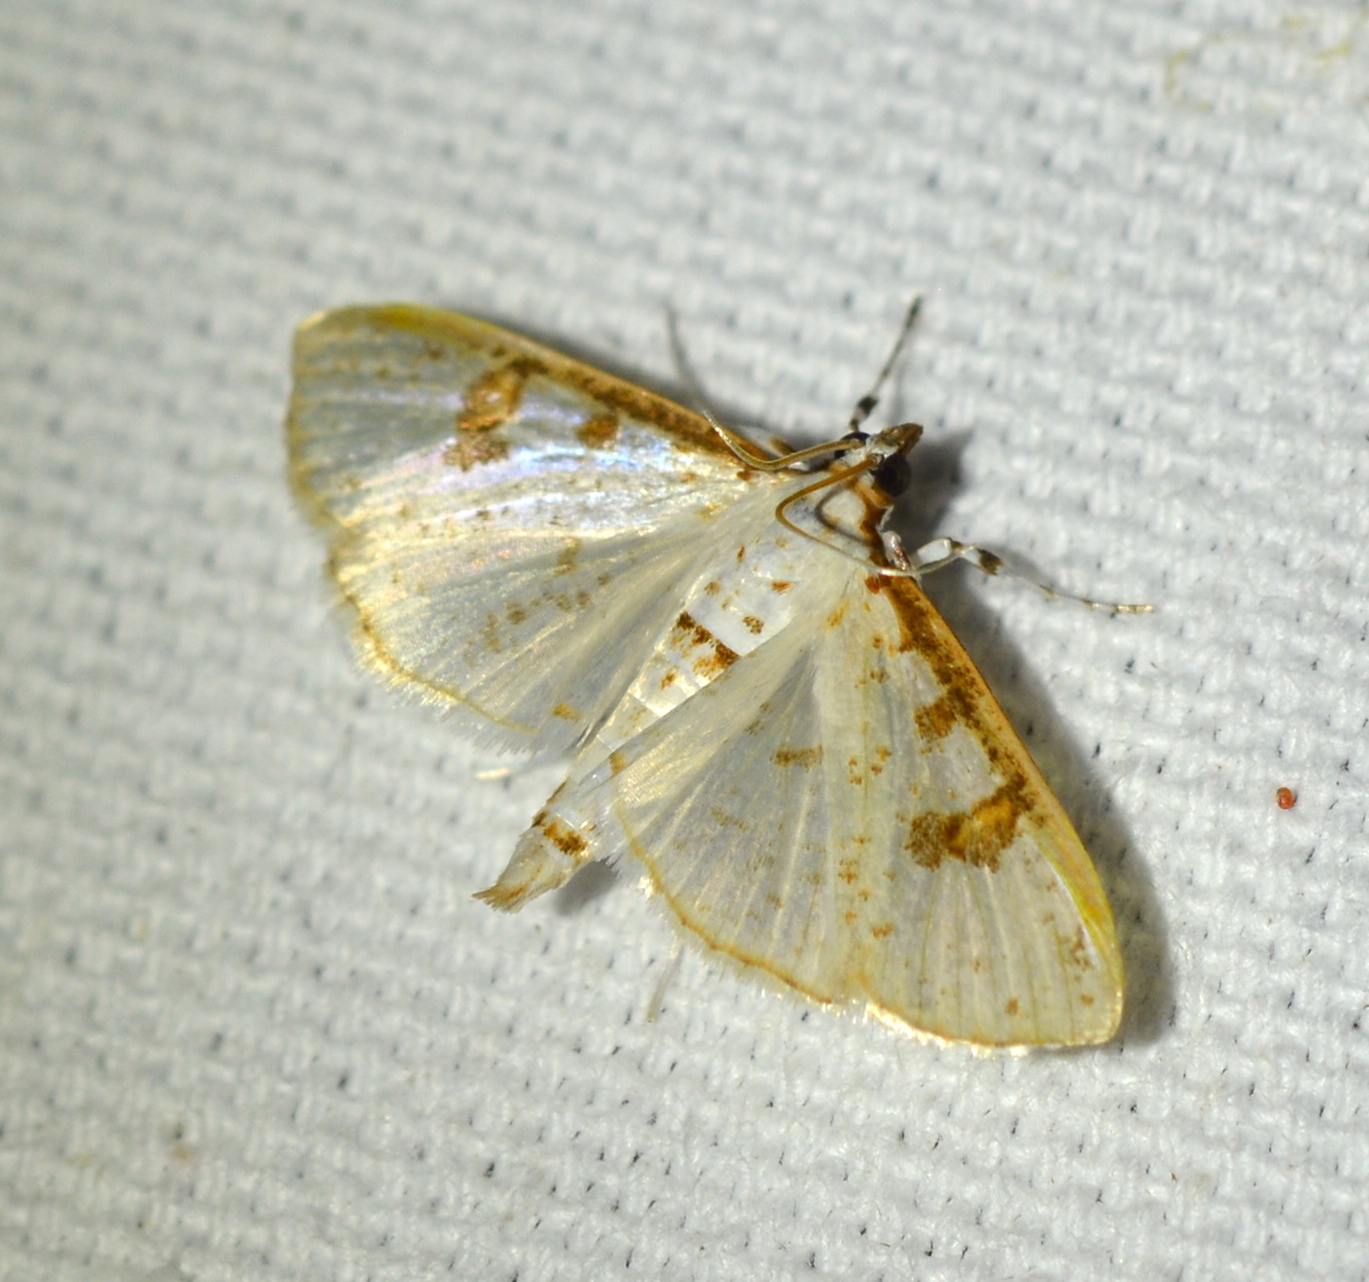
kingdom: Animalia
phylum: Arthropoda
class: Insecta
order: Lepidoptera
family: Crambidae
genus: Palpita
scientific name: Palpita illibalis
